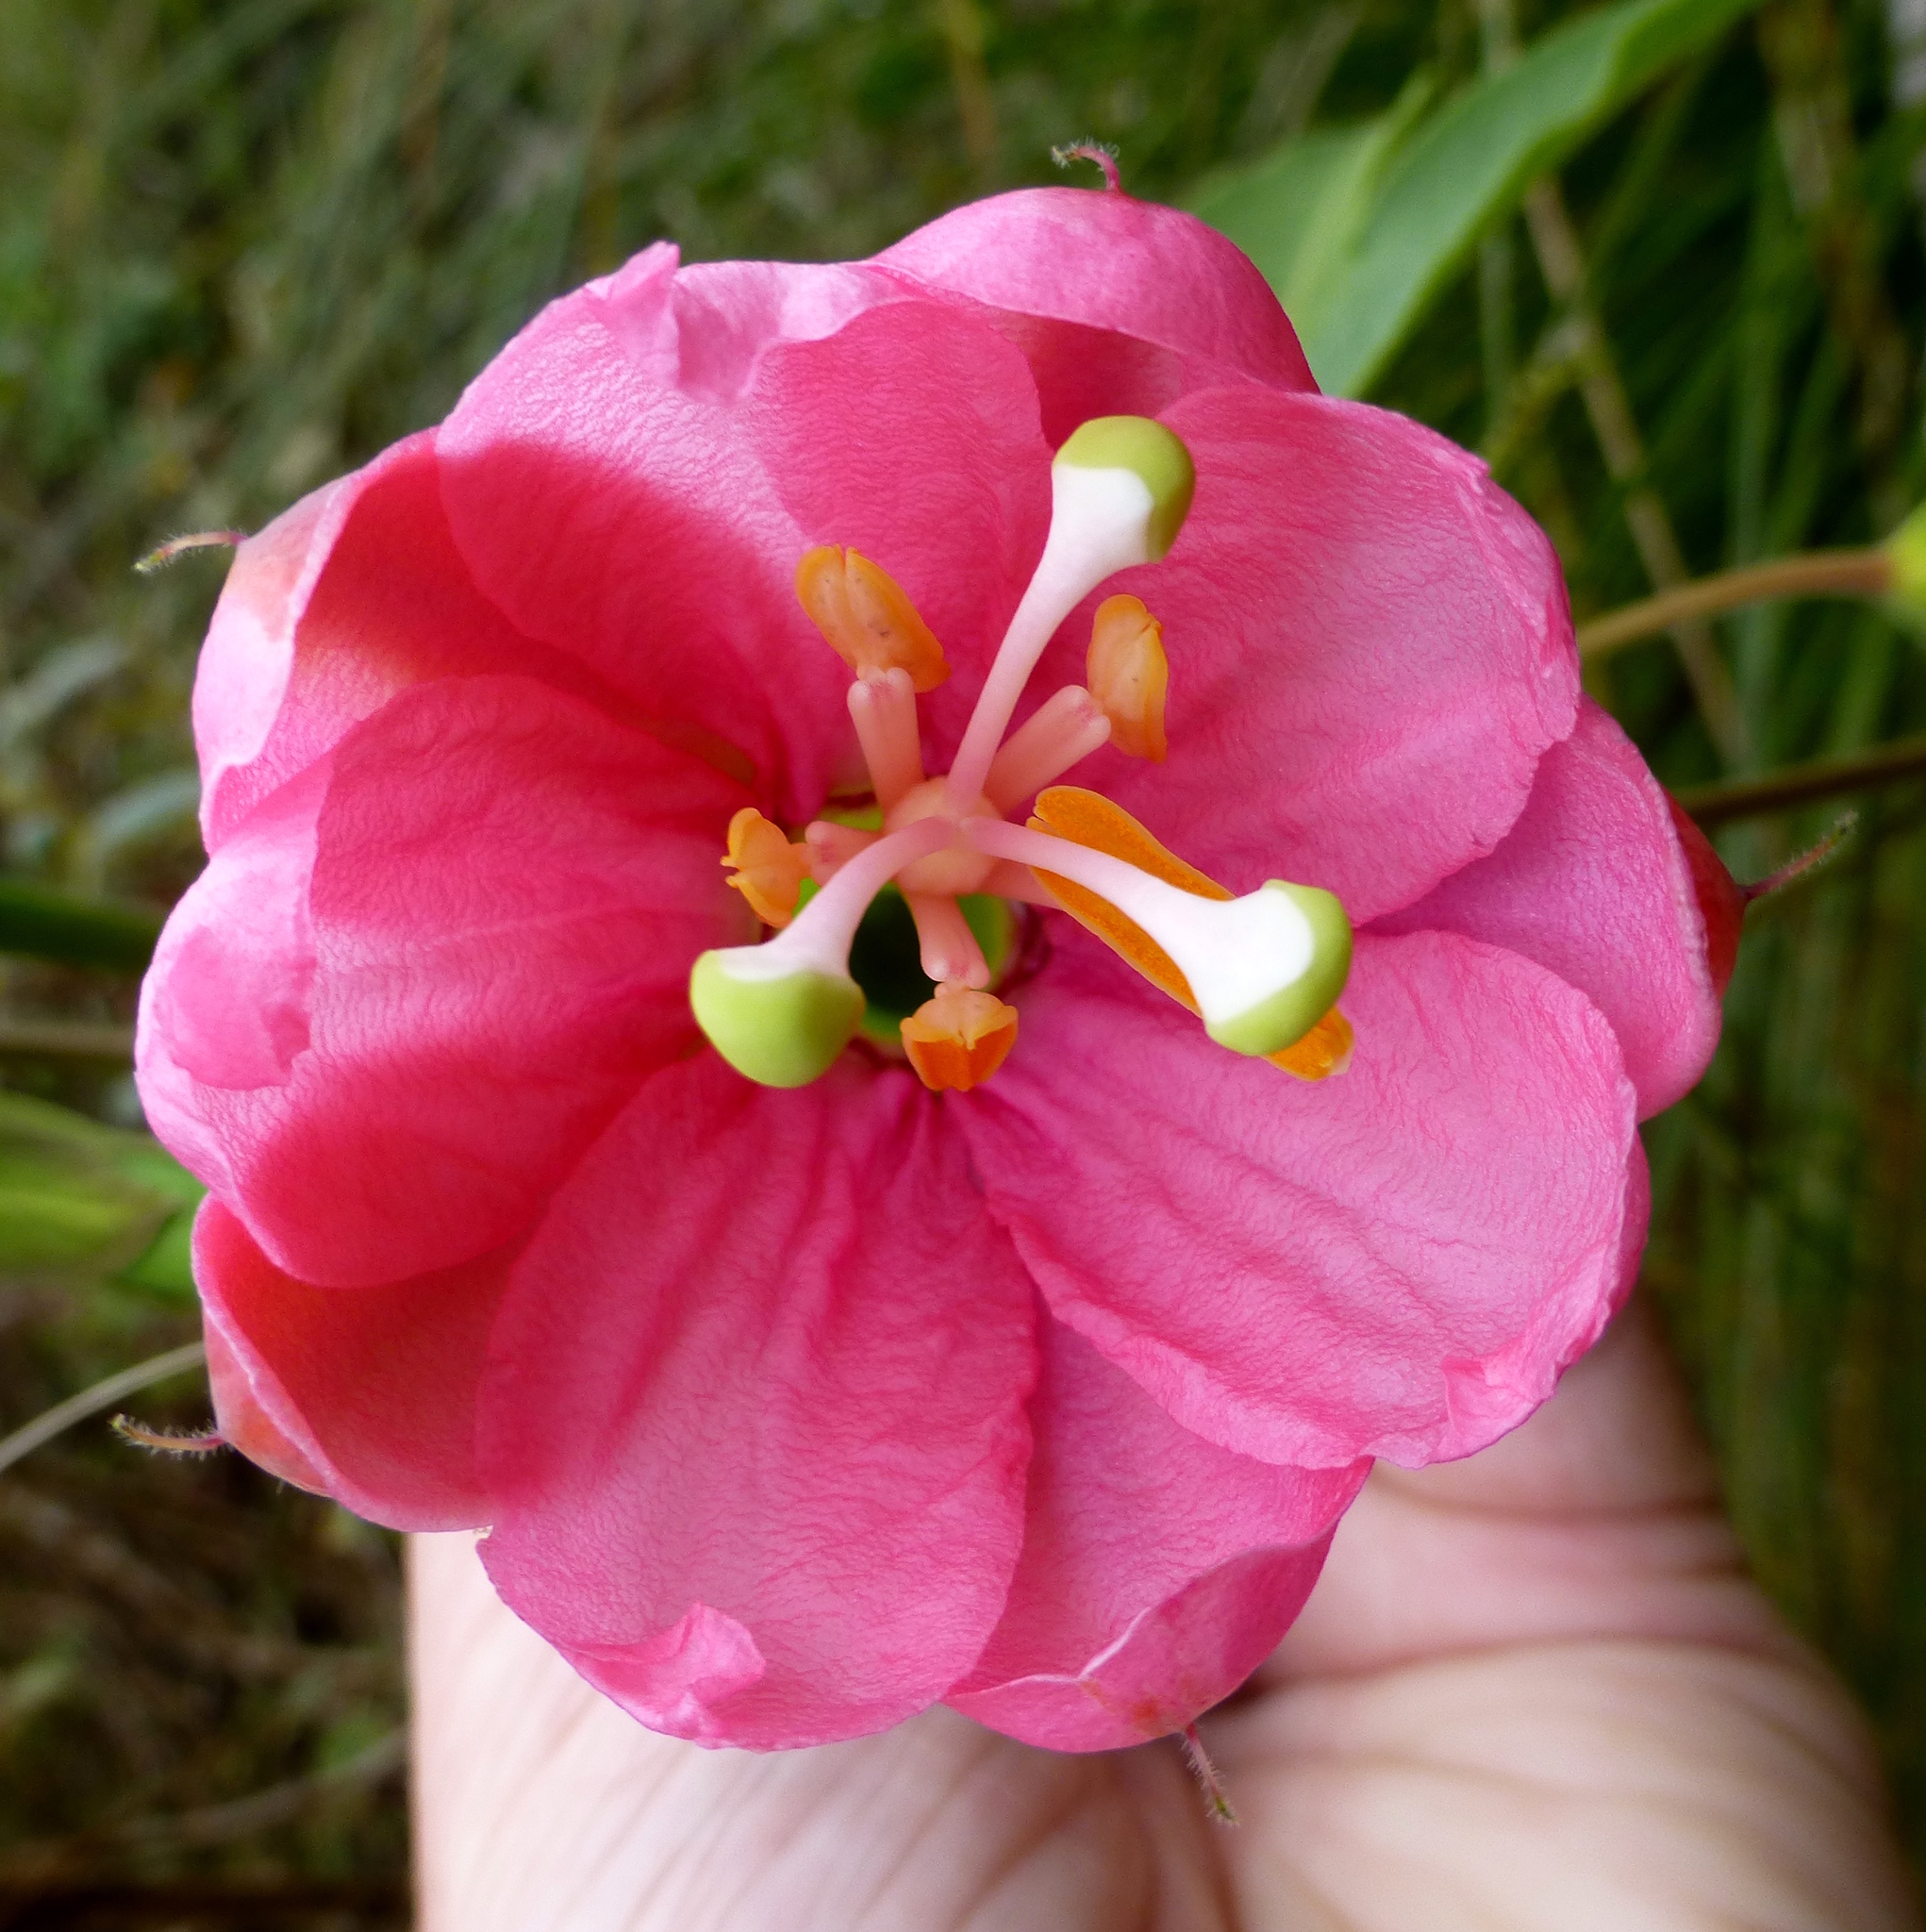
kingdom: Plantae
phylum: Tracheophyta
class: Magnoliopsida
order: Malpighiales
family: Passifloraceae
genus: Passiflora
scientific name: Passiflora tripartita
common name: Banana poka
